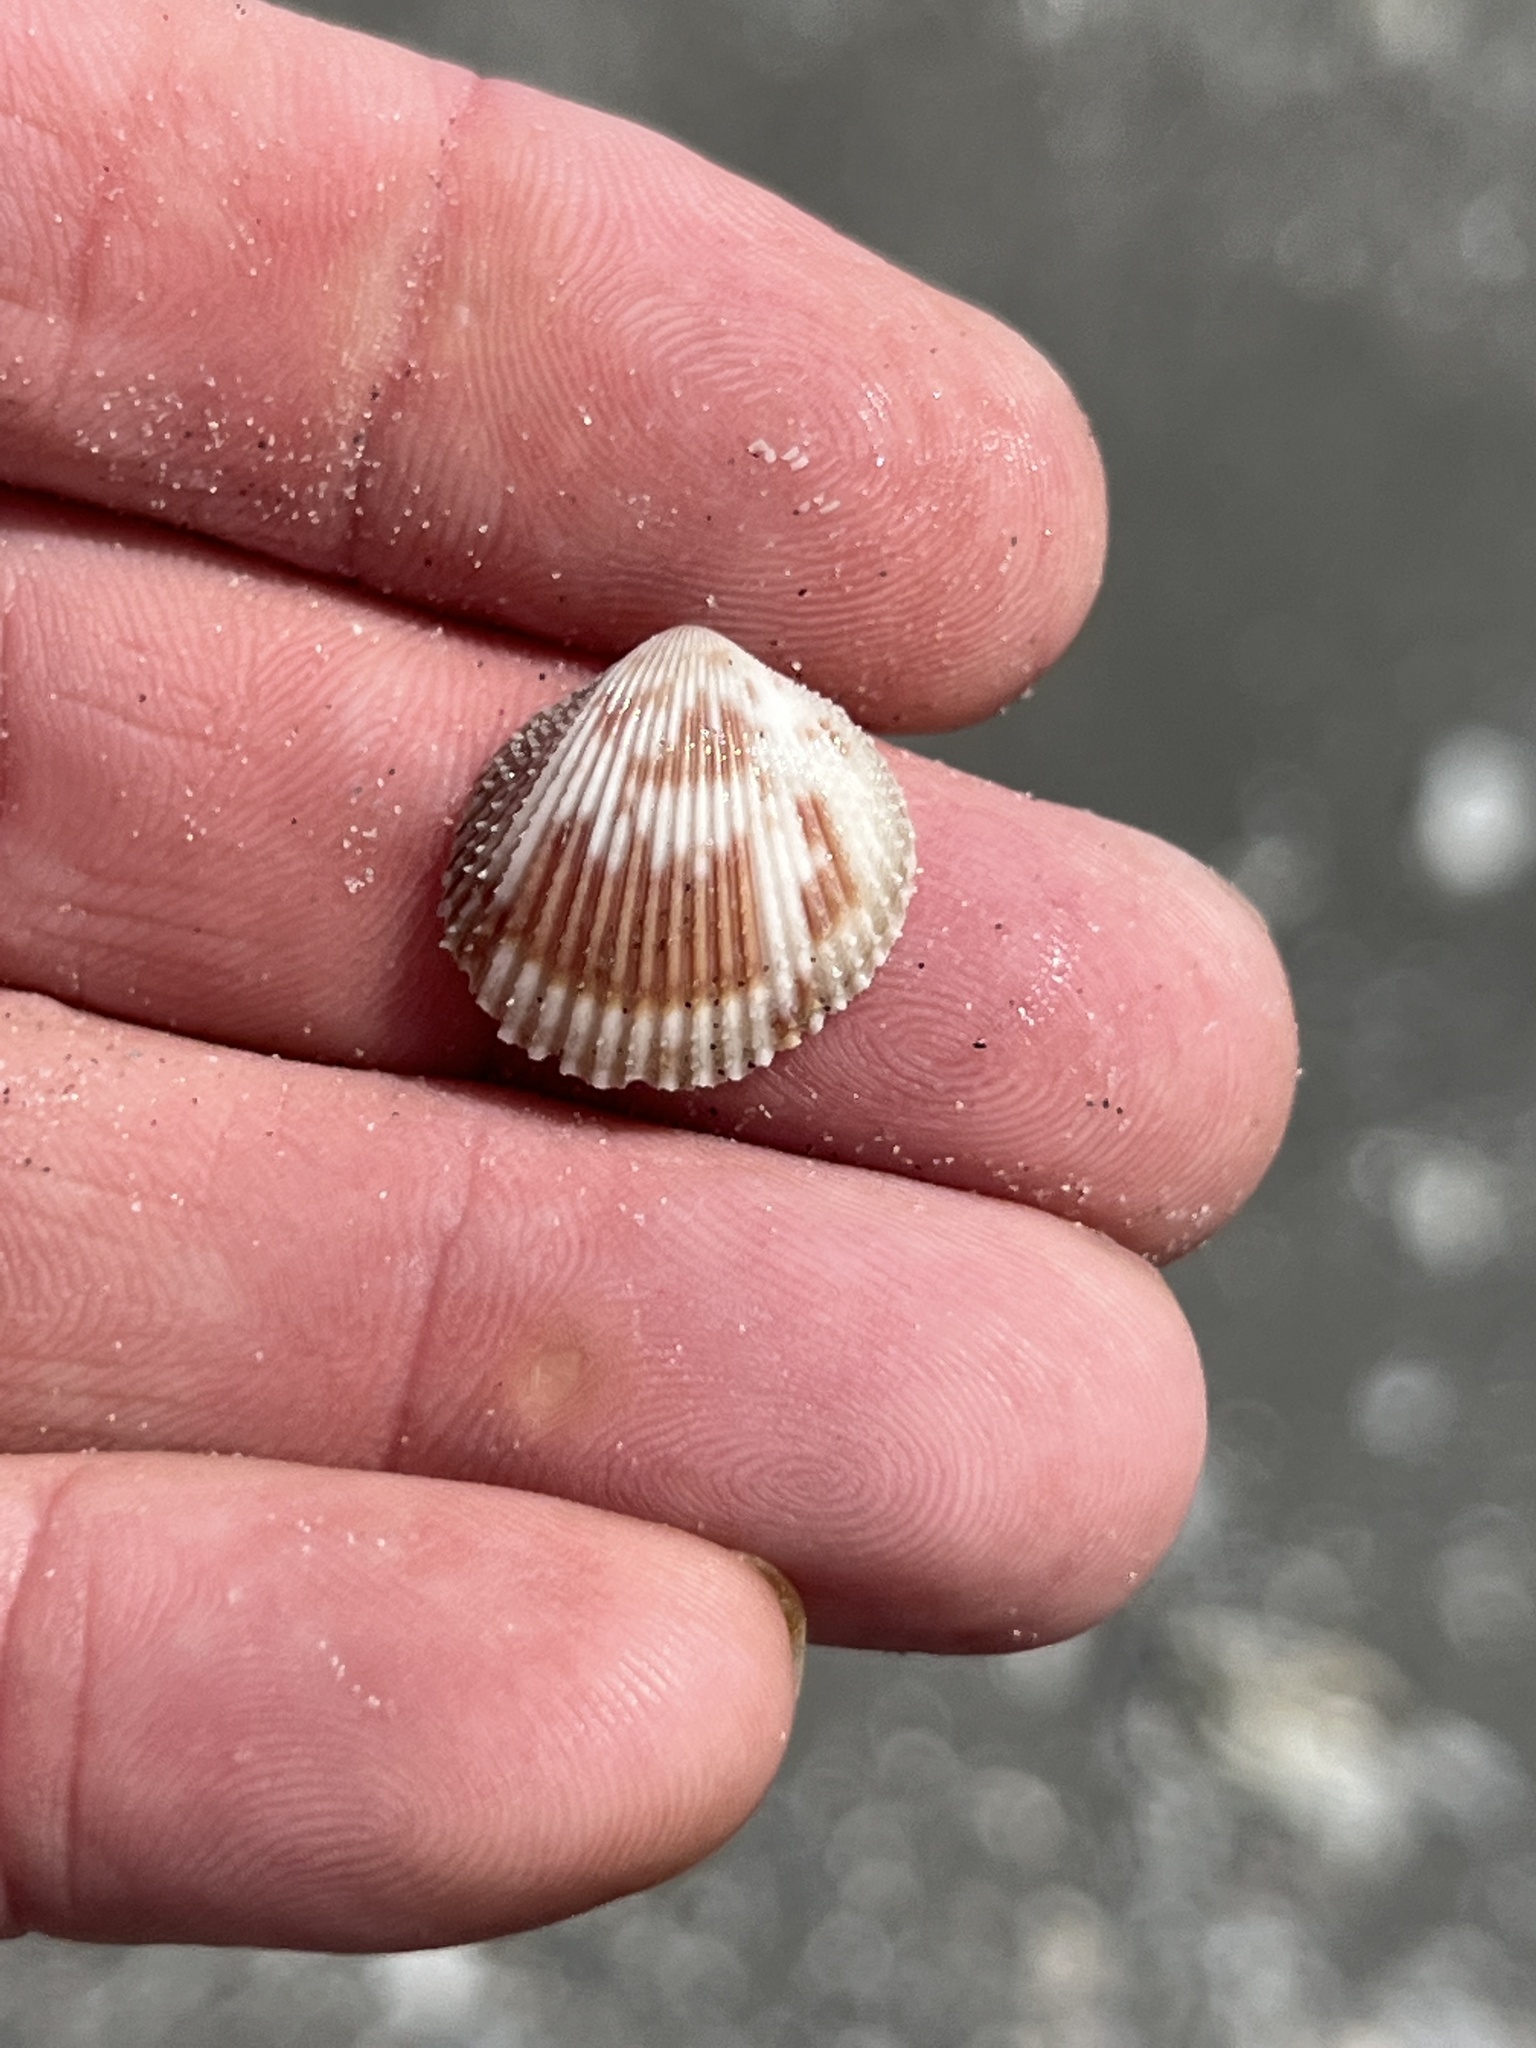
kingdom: Animalia
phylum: Mollusca
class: Bivalvia
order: Cardiida
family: Cardiidae
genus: Trachycardium
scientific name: Trachycardium egmontianum
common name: Florida pricklycockle
